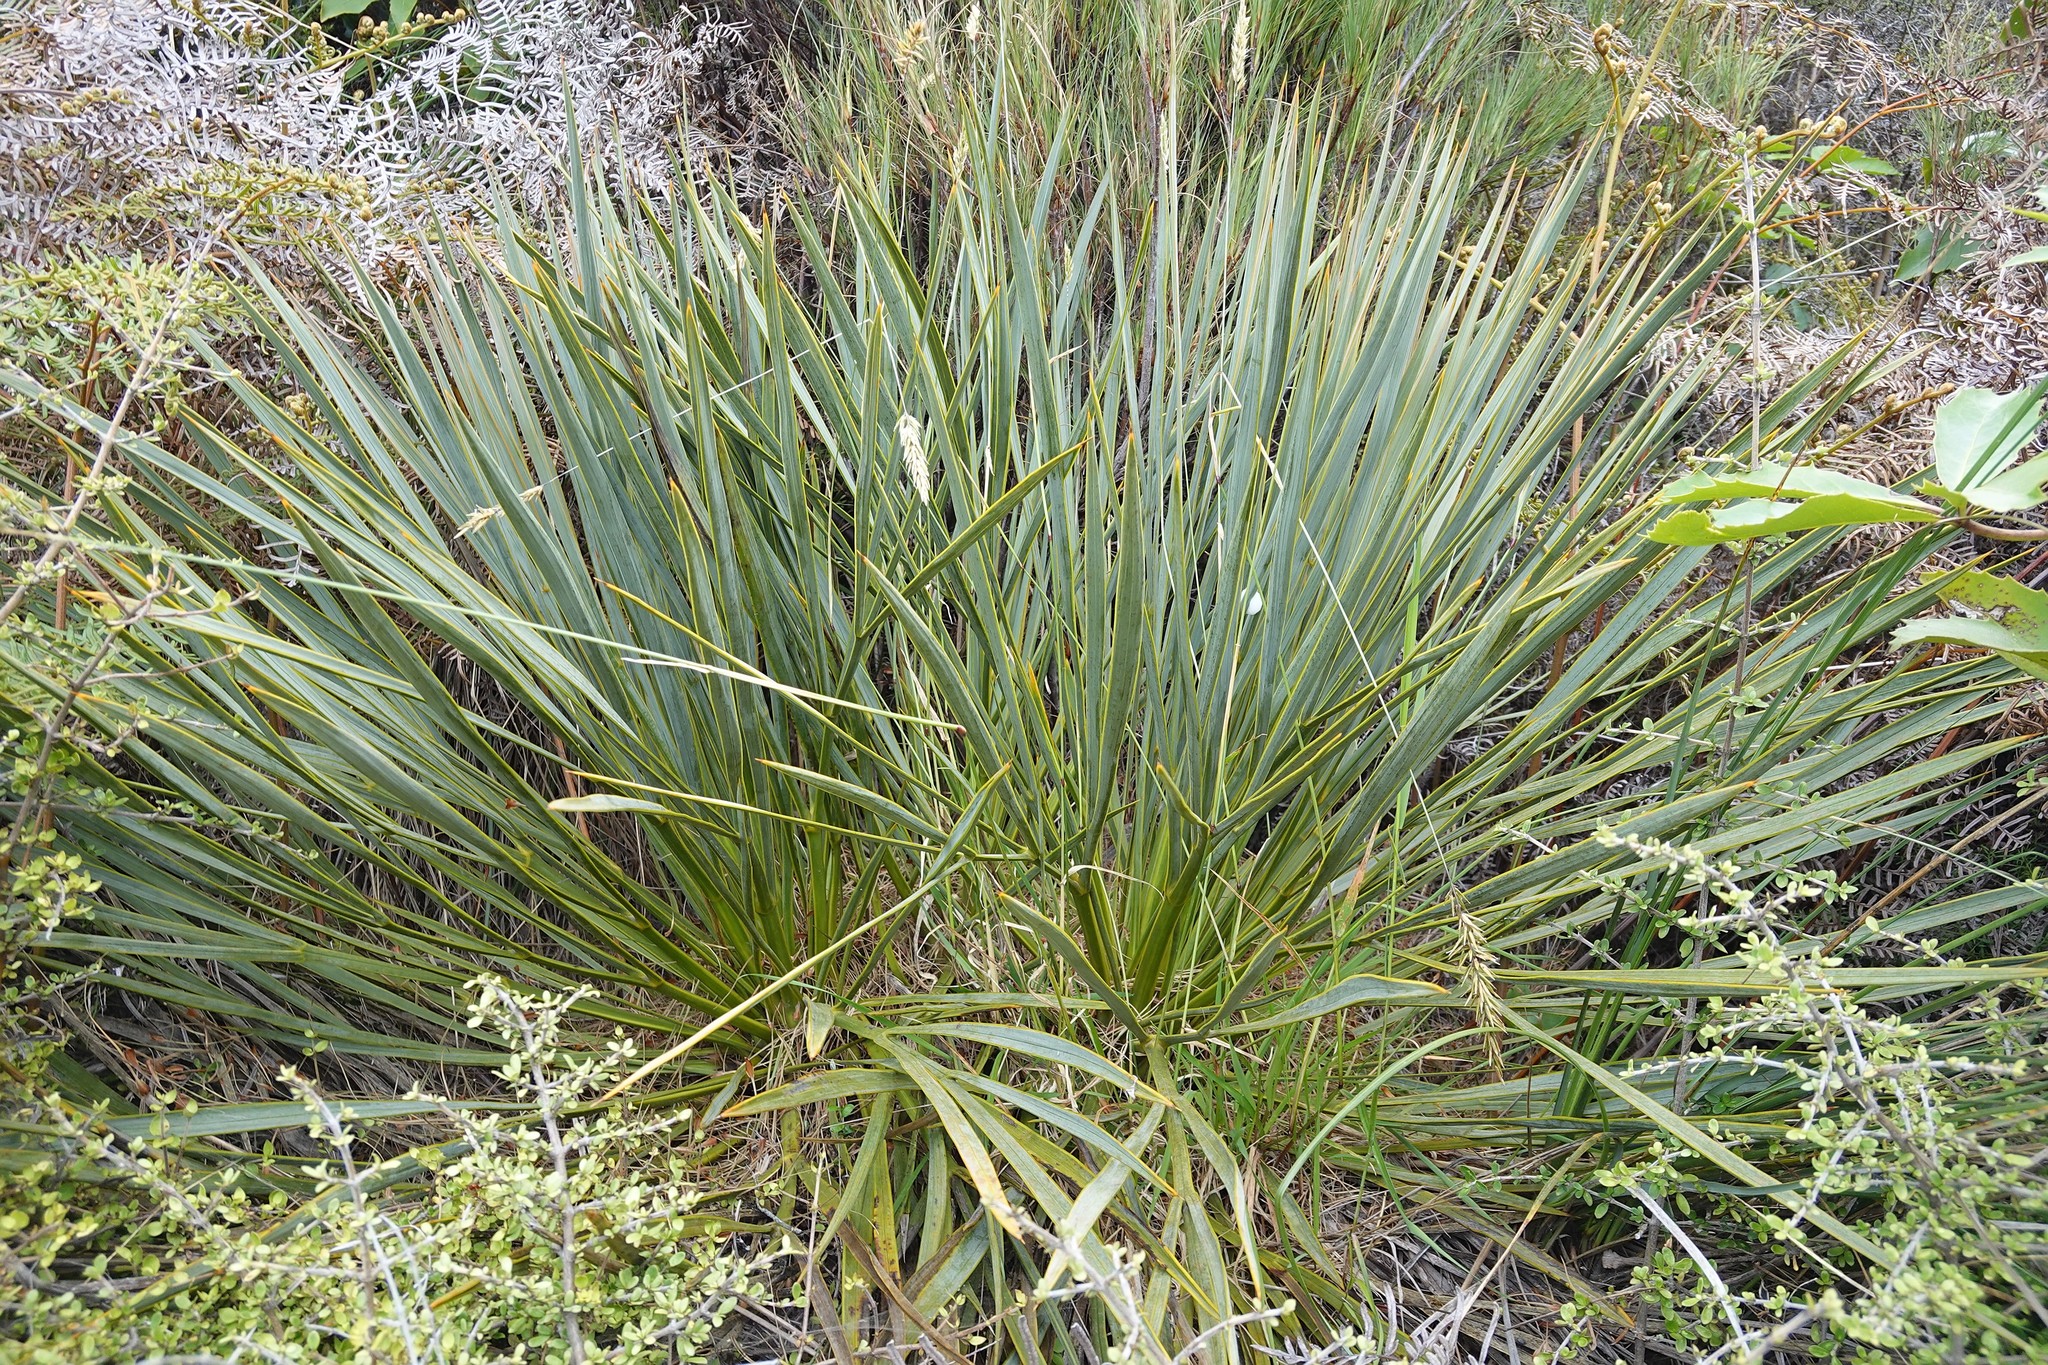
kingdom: Plantae
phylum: Tracheophyta
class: Magnoliopsida
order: Apiales
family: Apiaceae
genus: Aciphylla
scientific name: Aciphylla aurea
